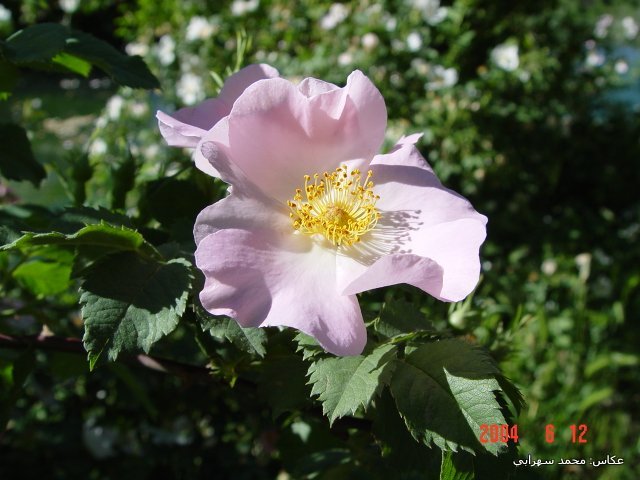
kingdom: Plantae
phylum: Tracheophyta
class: Magnoliopsida
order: Rosales
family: Rosaceae
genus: Rosa
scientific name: Rosa canina
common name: Dog rose
